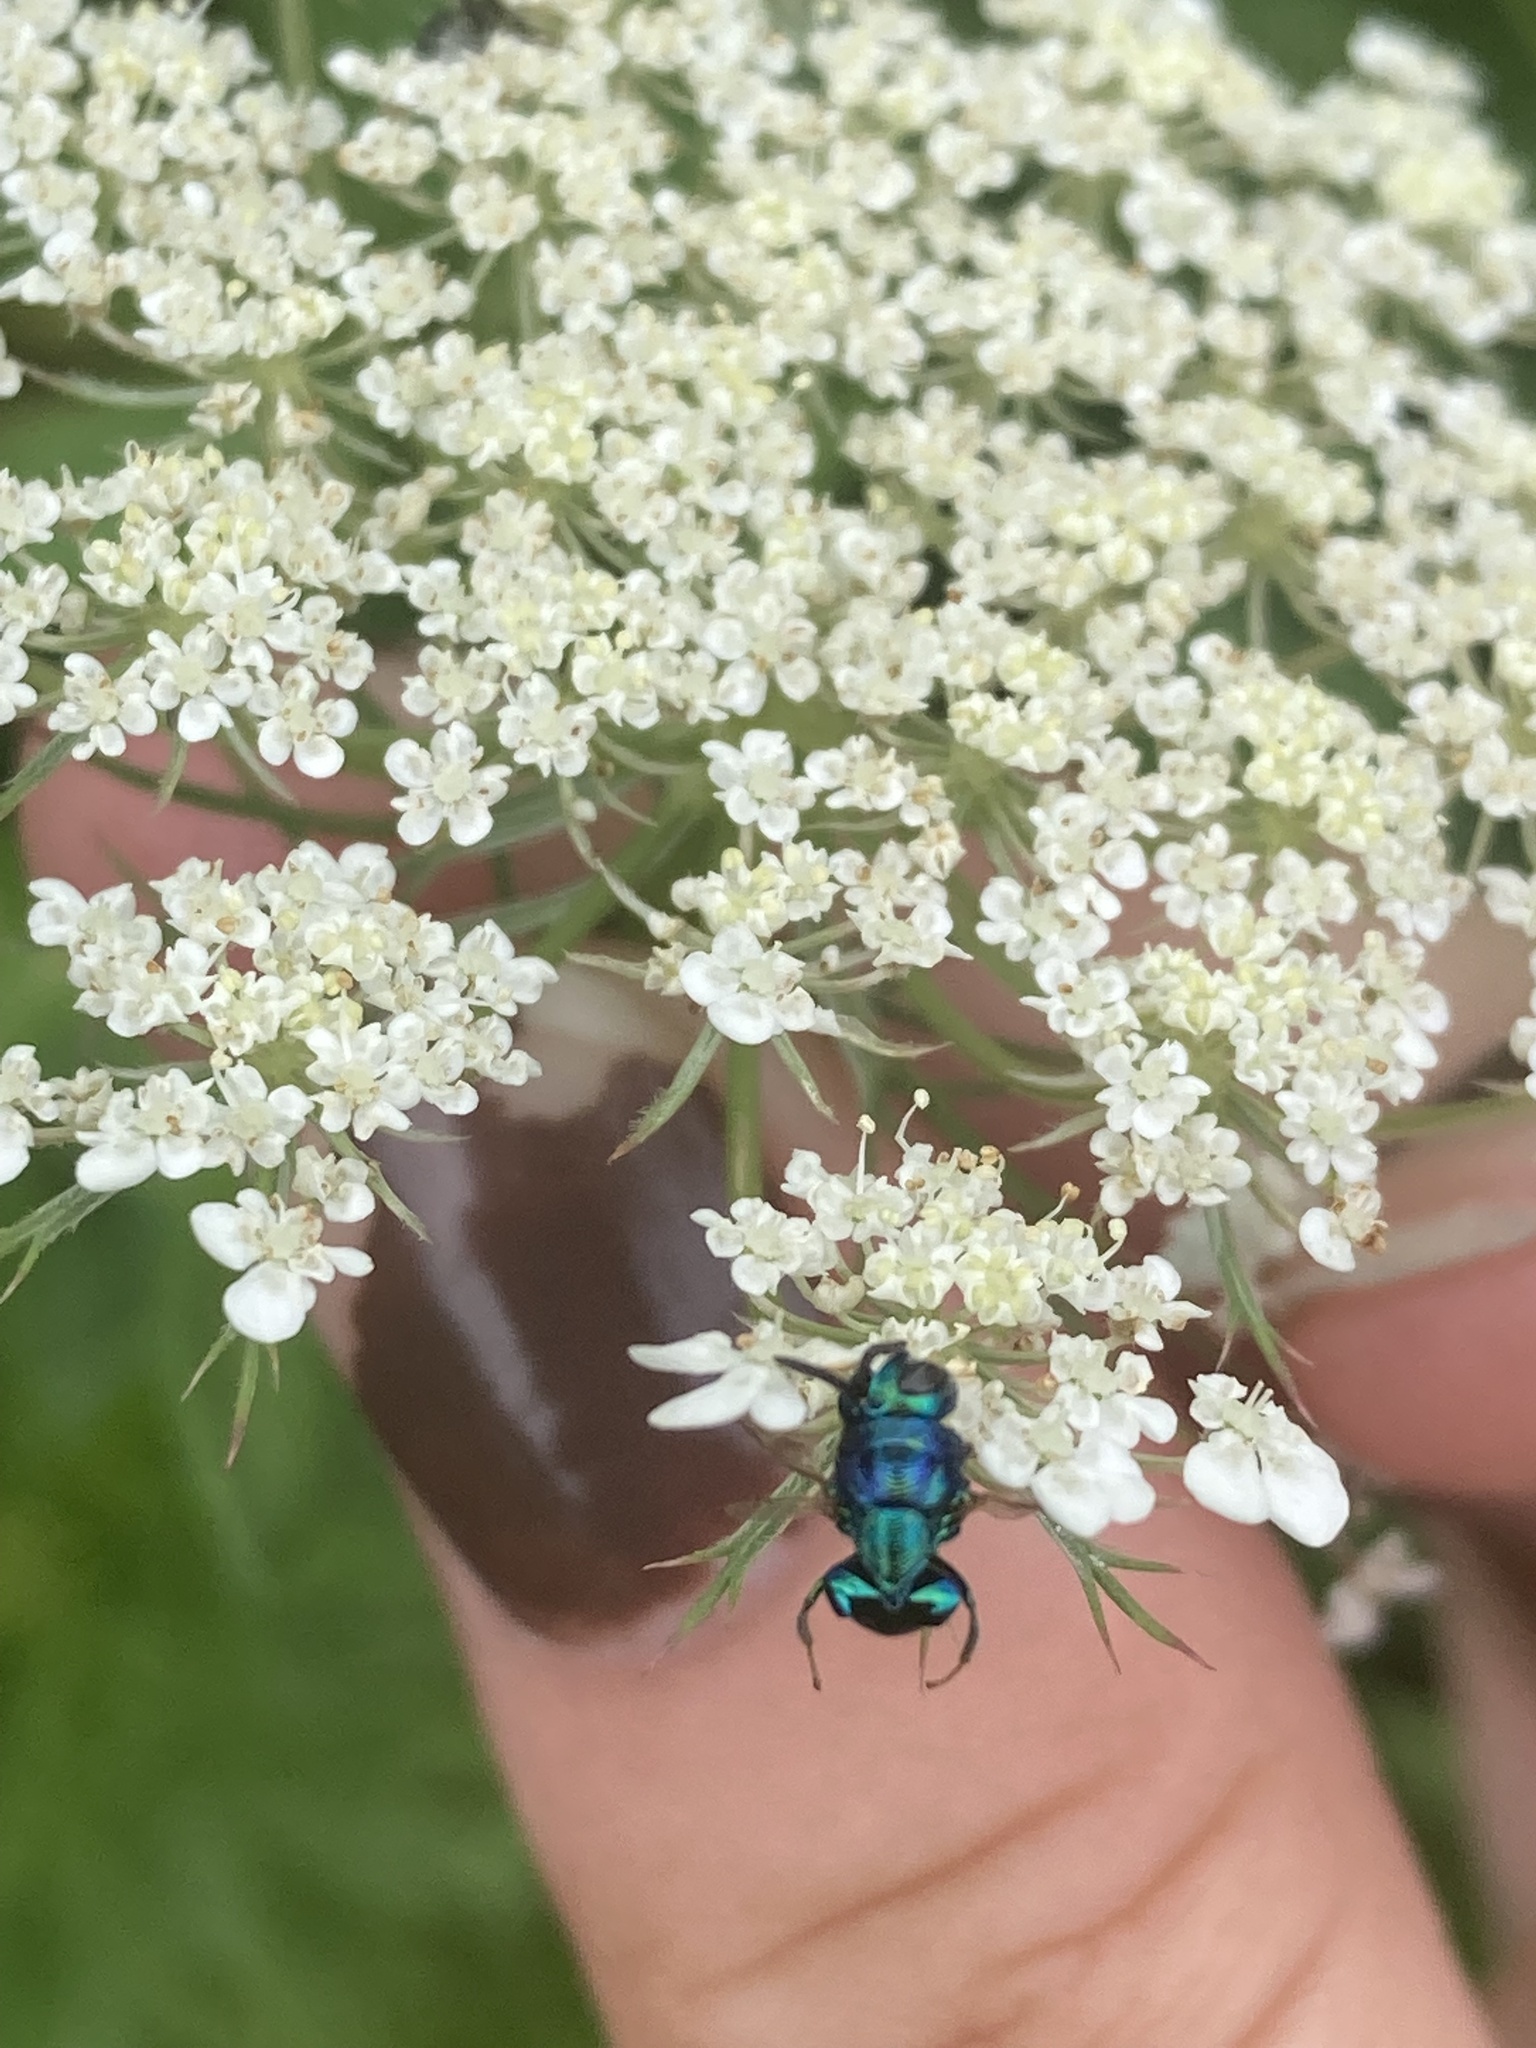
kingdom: Animalia
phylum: Arthropoda
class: Insecta
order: Hymenoptera
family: Perilampidae
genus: Euperilampus
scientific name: Euperilampus triangularis
